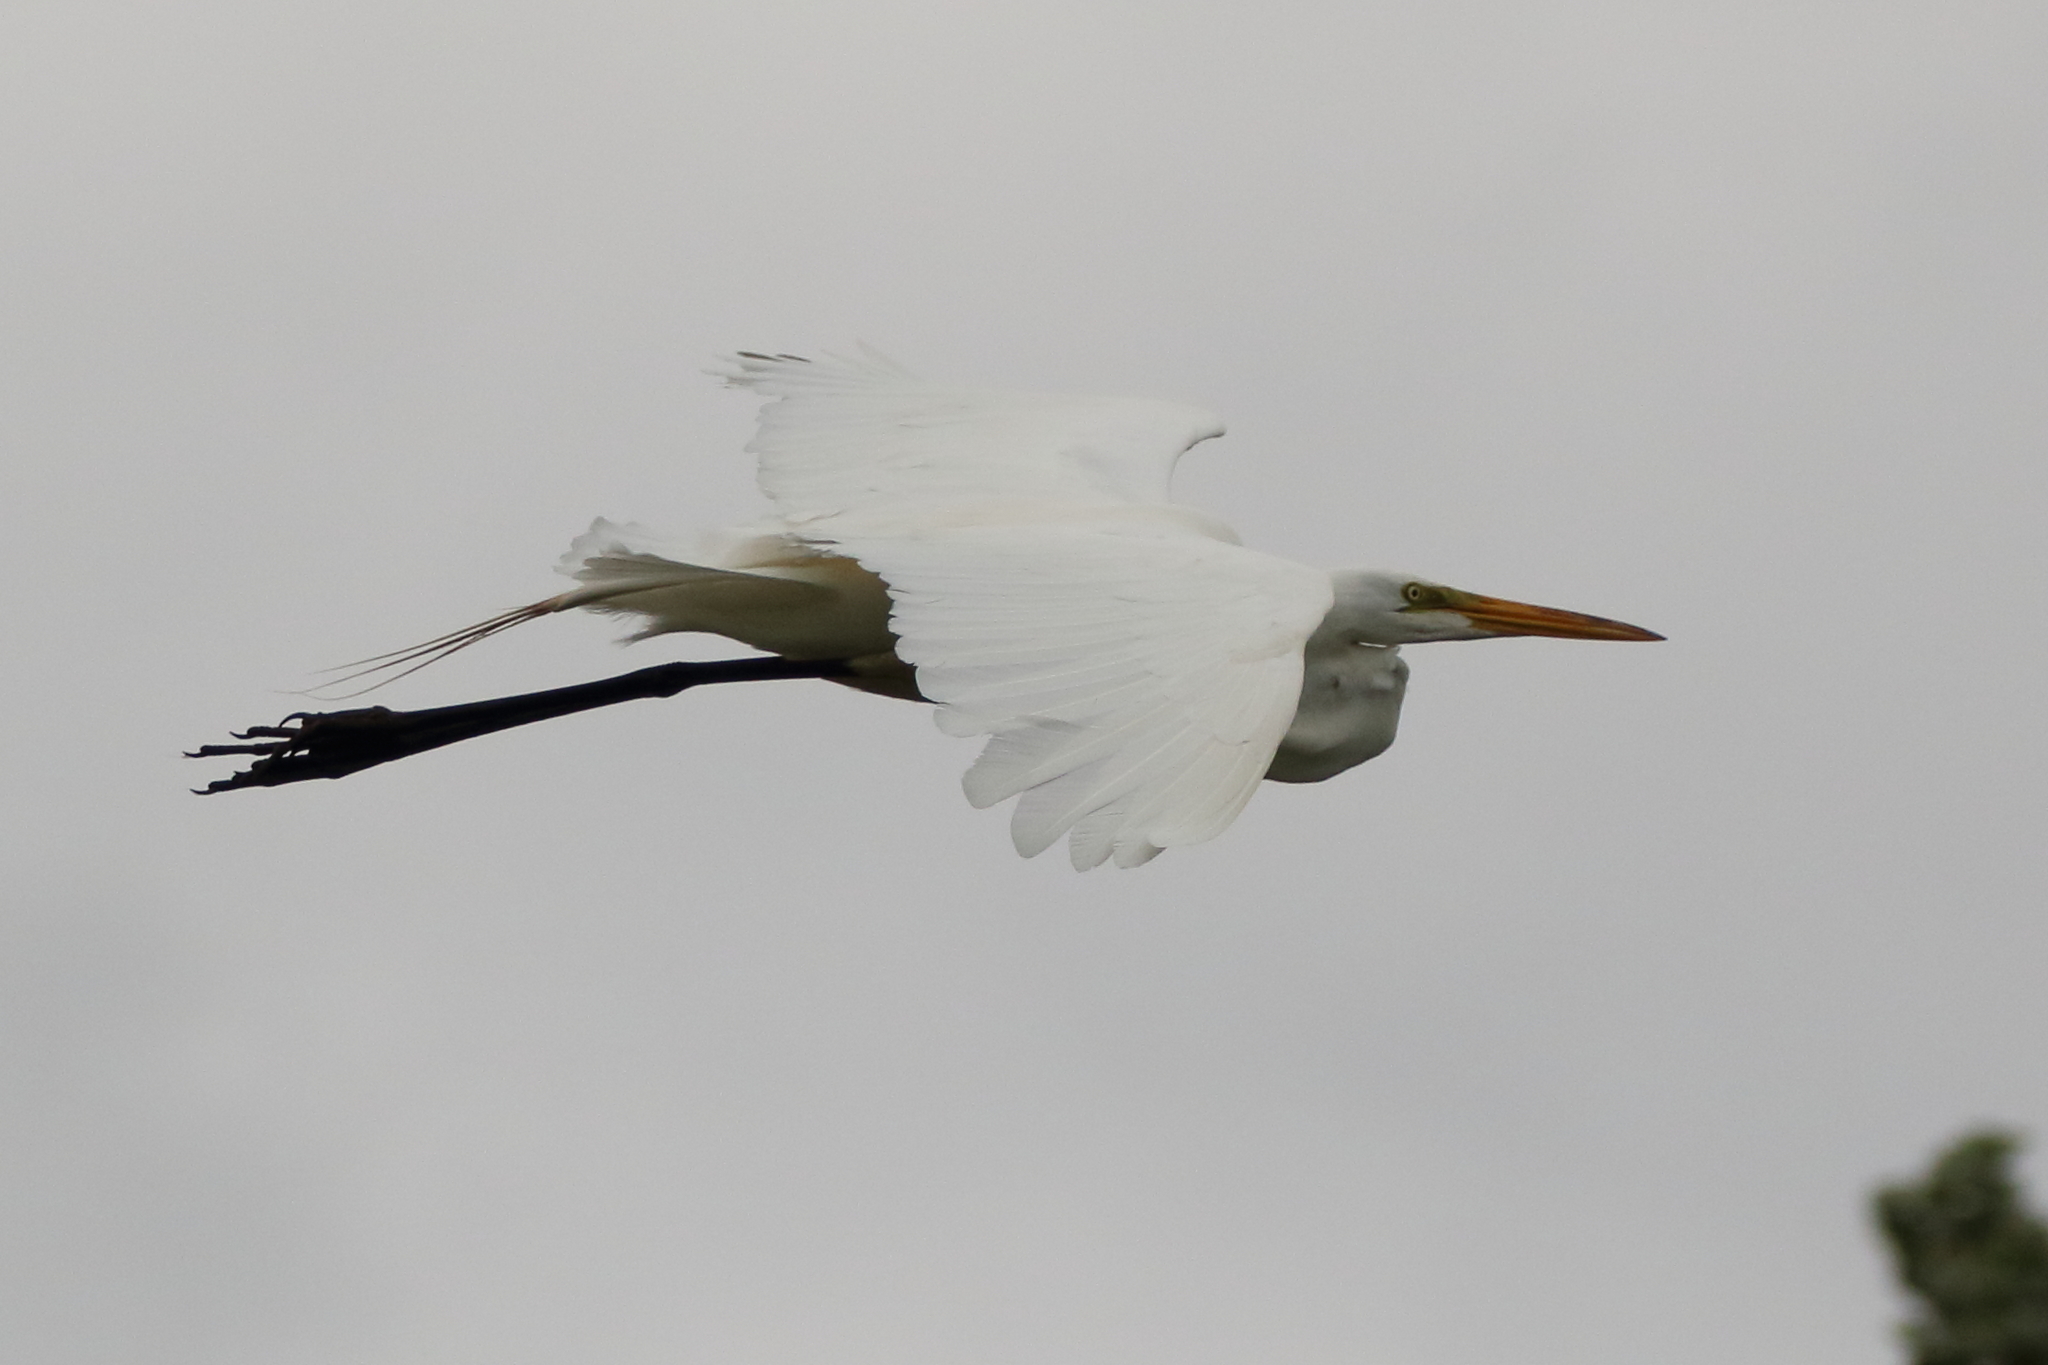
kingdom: Animalia
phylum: Chordata
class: Aves
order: Pelecaniformes
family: Ardeidae
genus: Ardea
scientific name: Ardea alba
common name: Great egret
